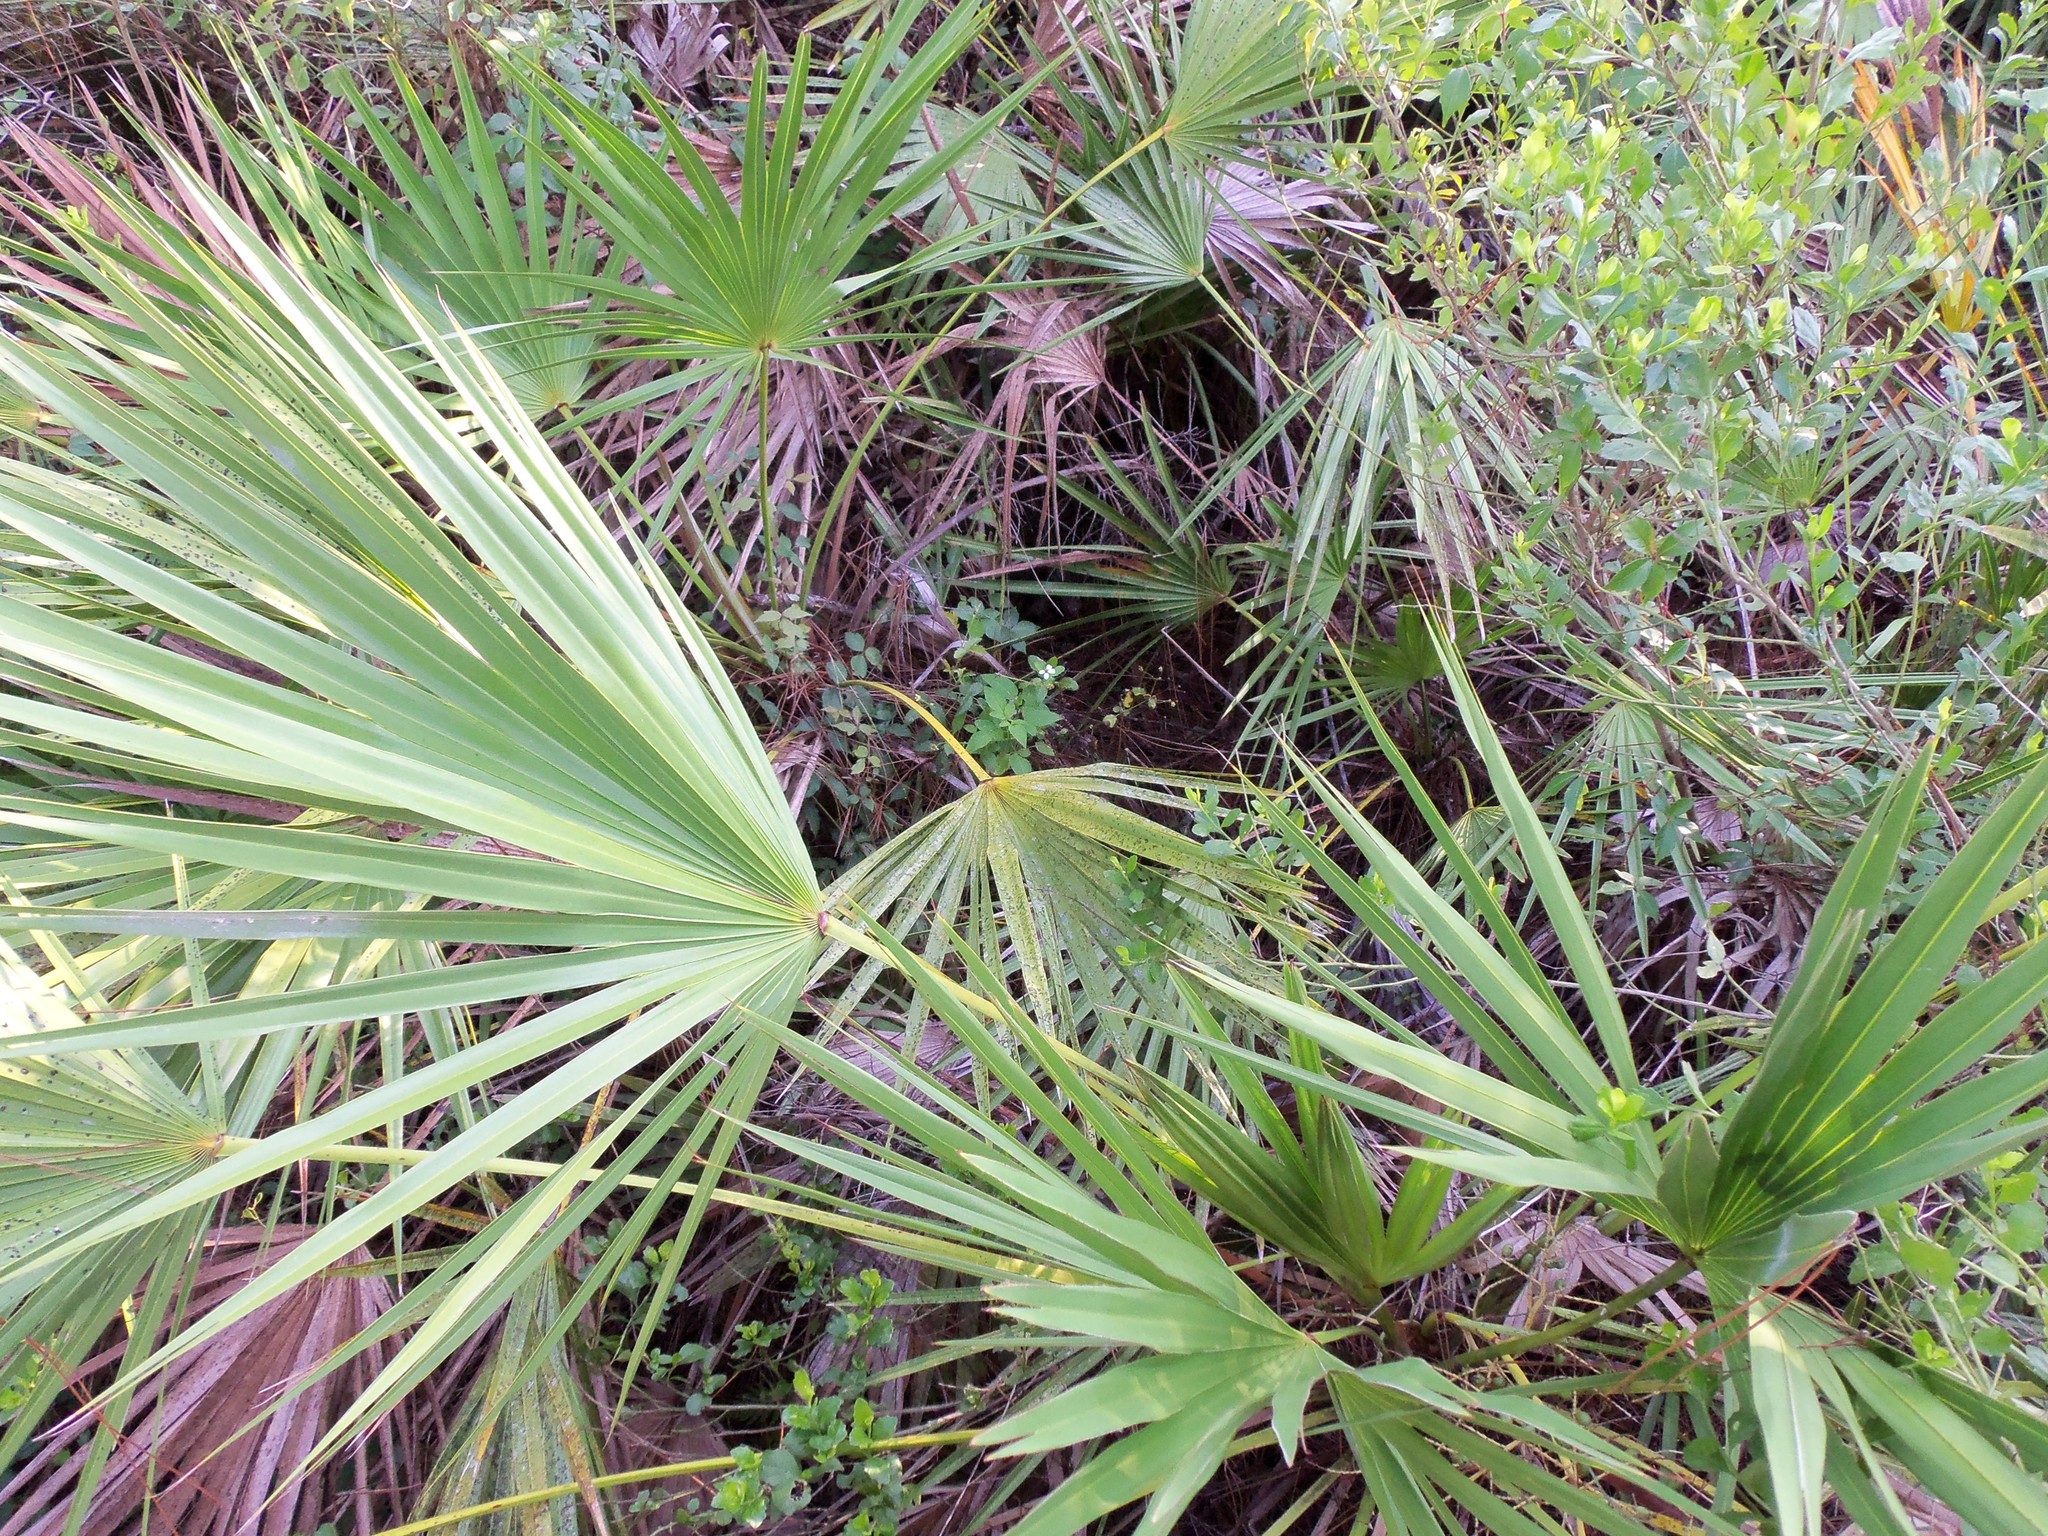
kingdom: Plantae
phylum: Tracheophyta
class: Liliopsida
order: Arecales
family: Arecaceae
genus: Serenoa
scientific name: Serenoa repens
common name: Saw-palmetto
